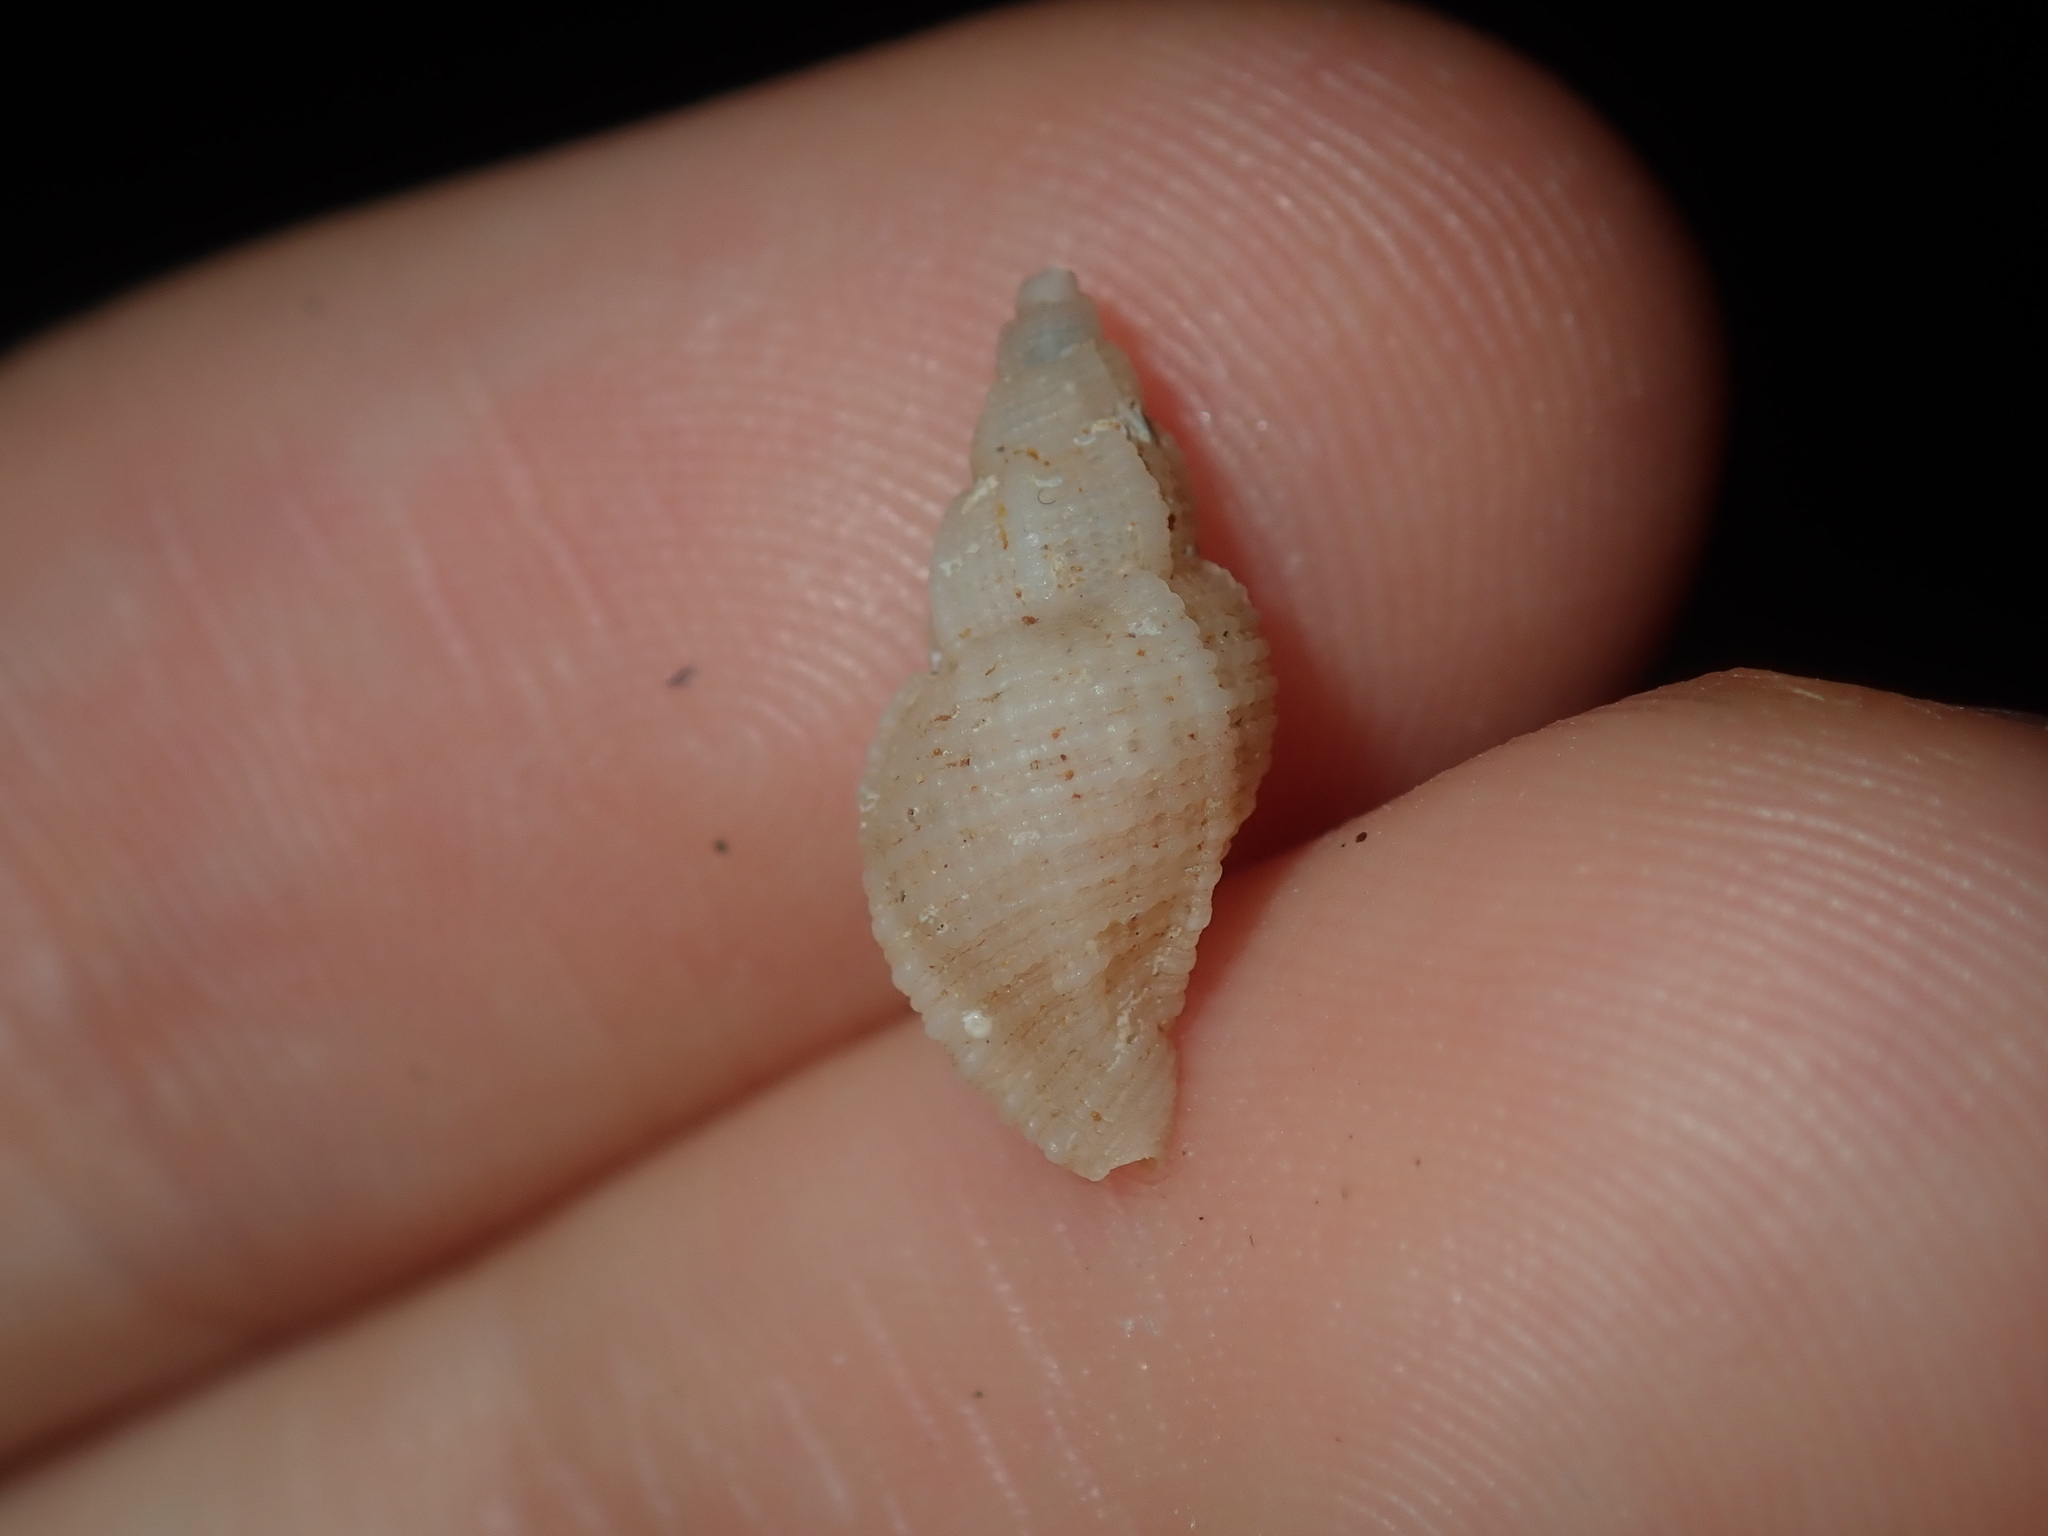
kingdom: Animalia
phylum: Mollusca
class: Gastropoda
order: Neogastropoda
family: Muricidae
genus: Phyllocoma
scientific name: Phyllocoma speciosa
